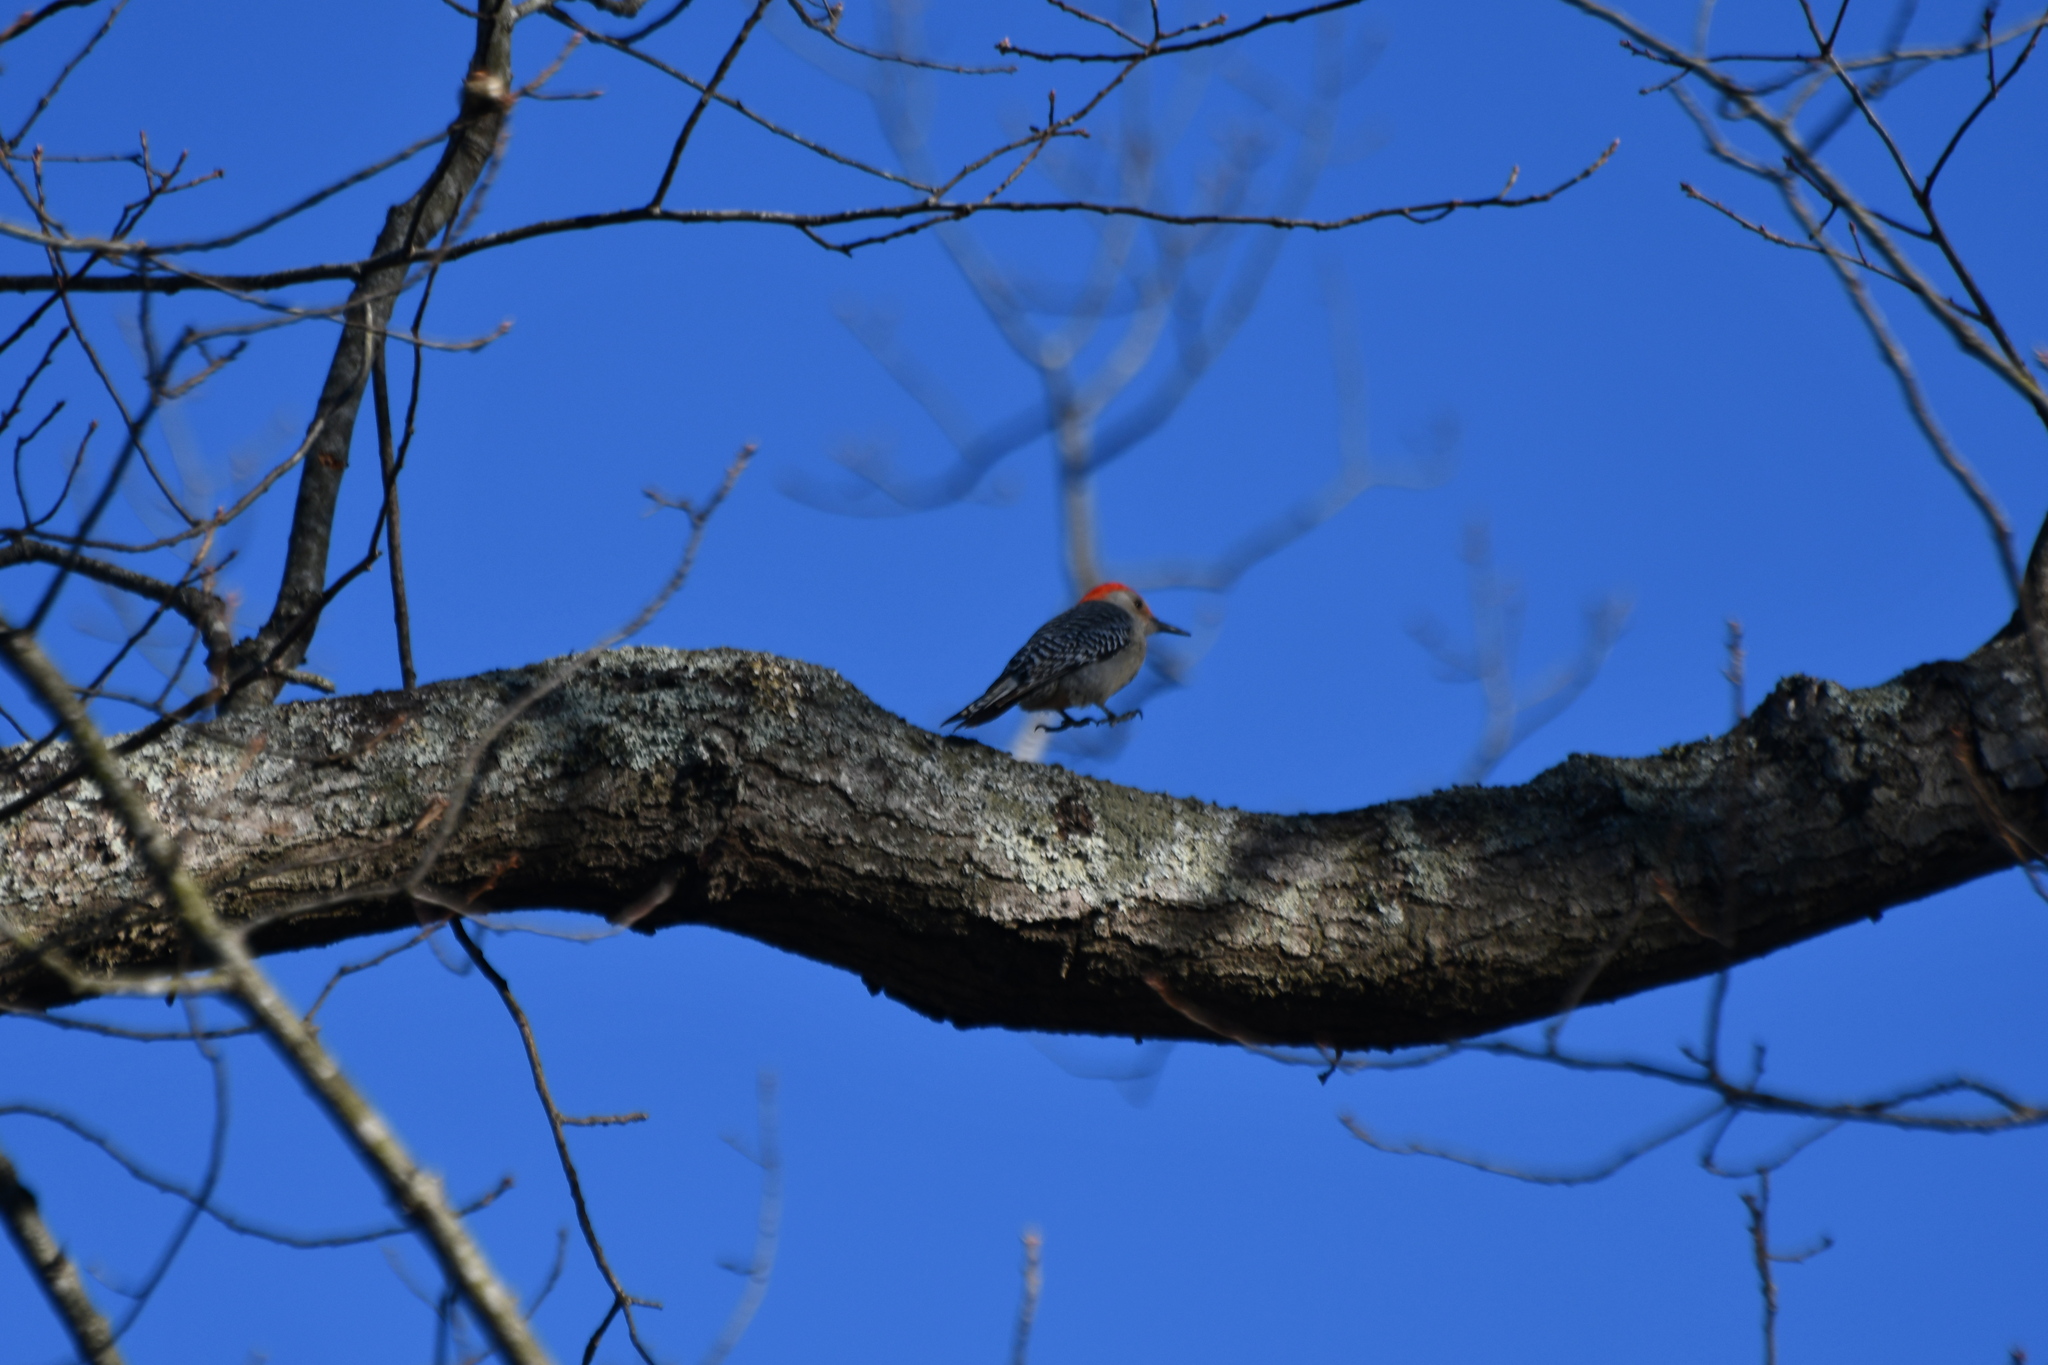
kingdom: Animalia
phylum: Chordata
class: Aves
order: Piciformes
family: Picidae
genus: Melanerpes
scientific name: Melanerpes carolinus
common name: Red-bellied woodpecker
